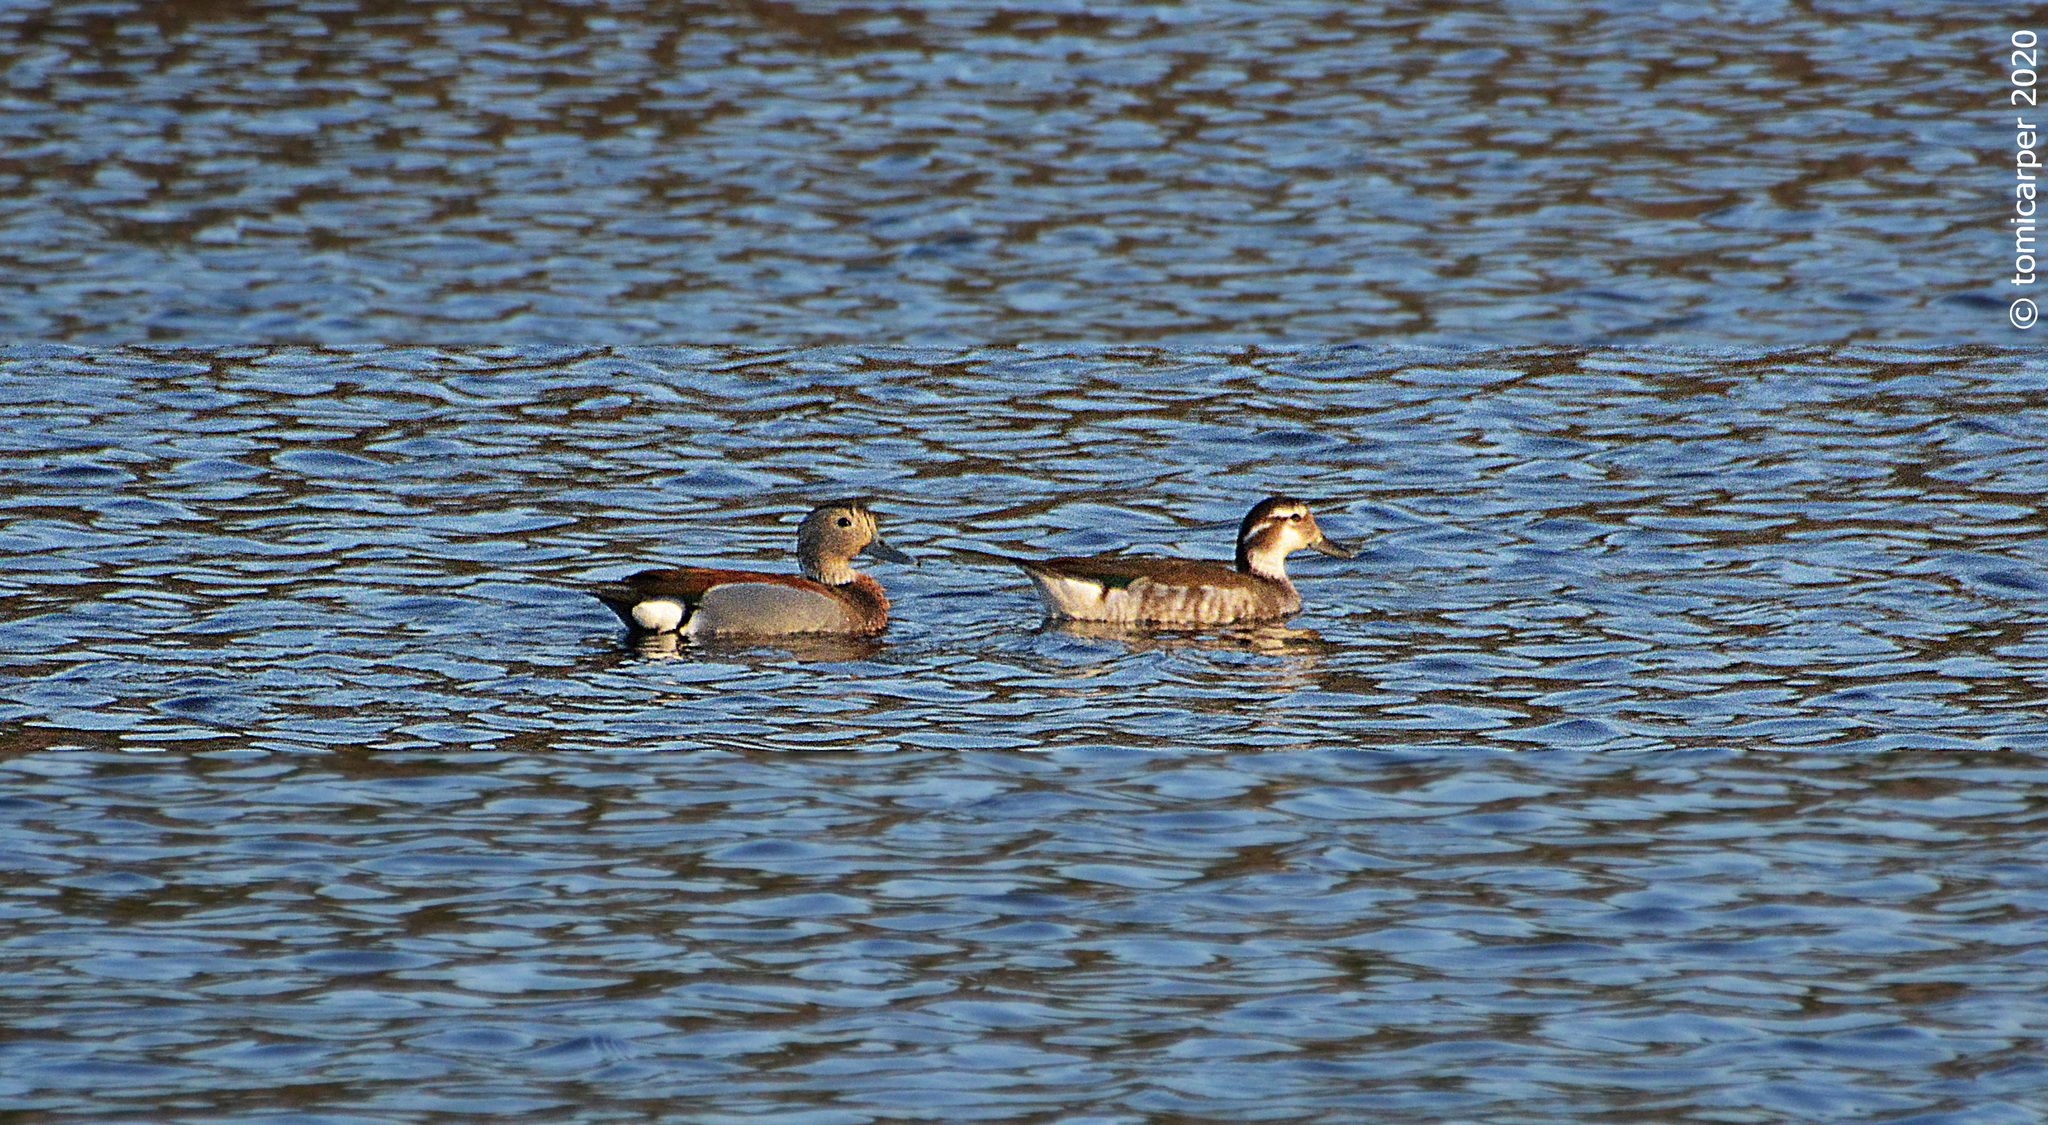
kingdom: Animalia
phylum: Chordata
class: Aves
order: Anseriformes
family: Anatidae
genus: Callonetta
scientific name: Callonetta leucophrys
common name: Ringed teal
